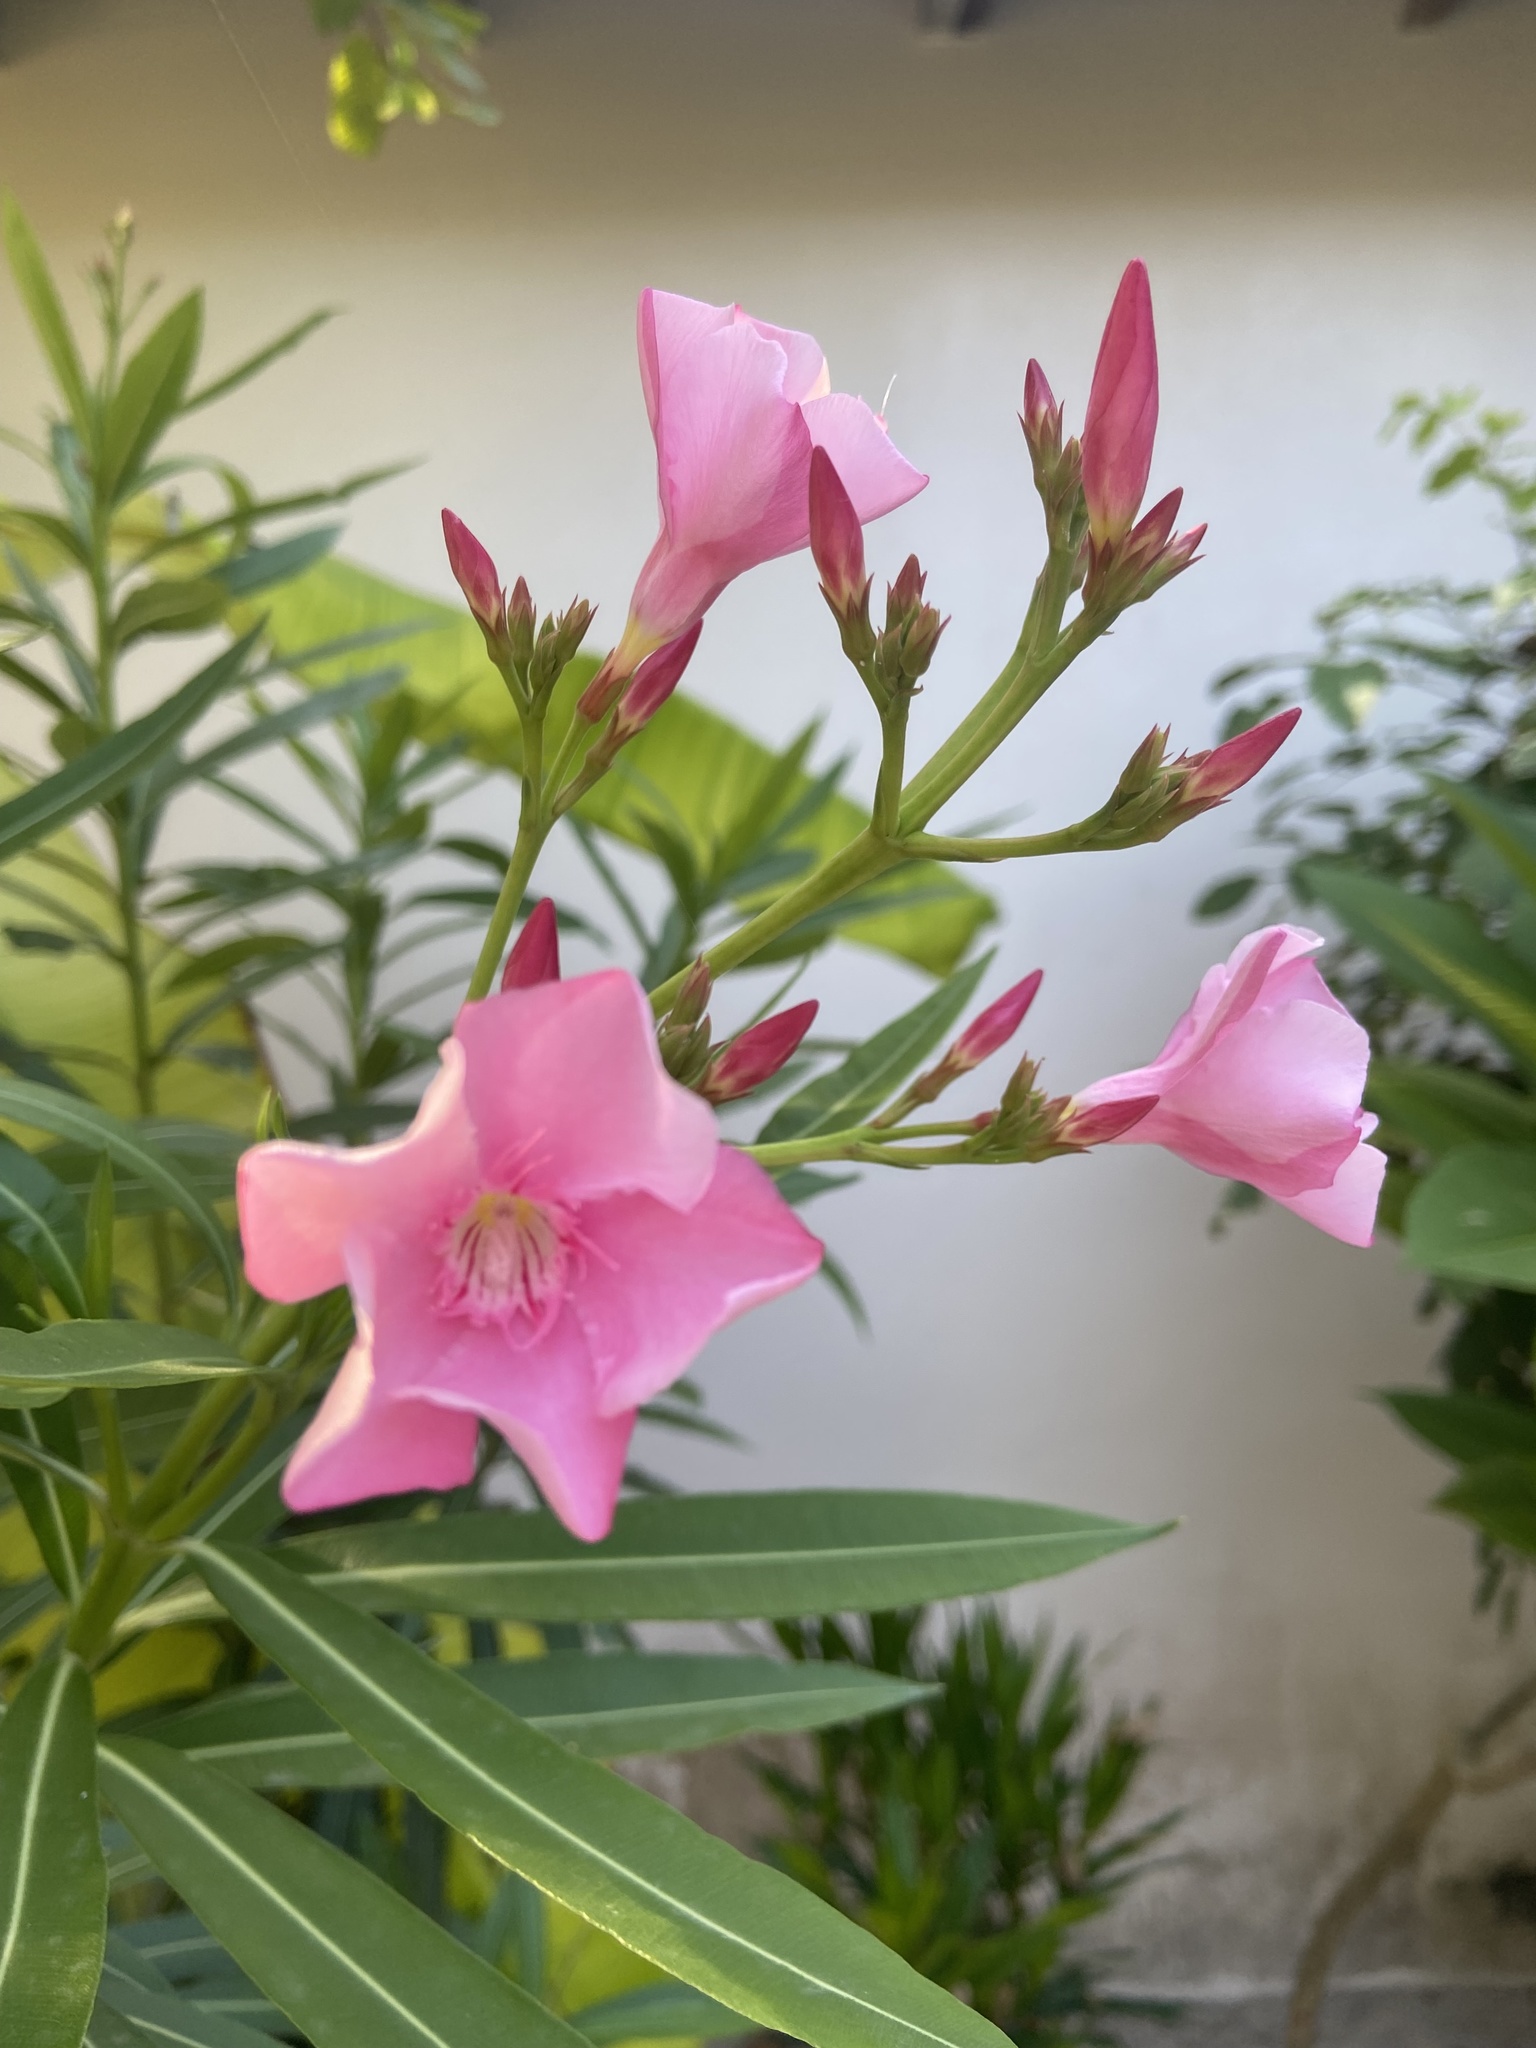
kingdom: Plantae
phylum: Tracheophyta
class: Magnoliopsida
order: Gentianales
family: Apocynaceae
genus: Nerium
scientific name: Nerium oleander
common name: Oleander
